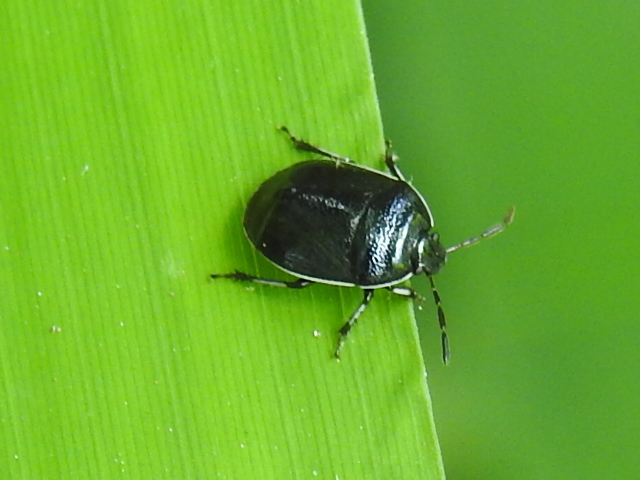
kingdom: Animalia
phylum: Arthropoda
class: Insecta
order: Hemiptera
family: Cydnidae
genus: Sehirus
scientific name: Sehirus cinctus
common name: White-margined burrower bug
